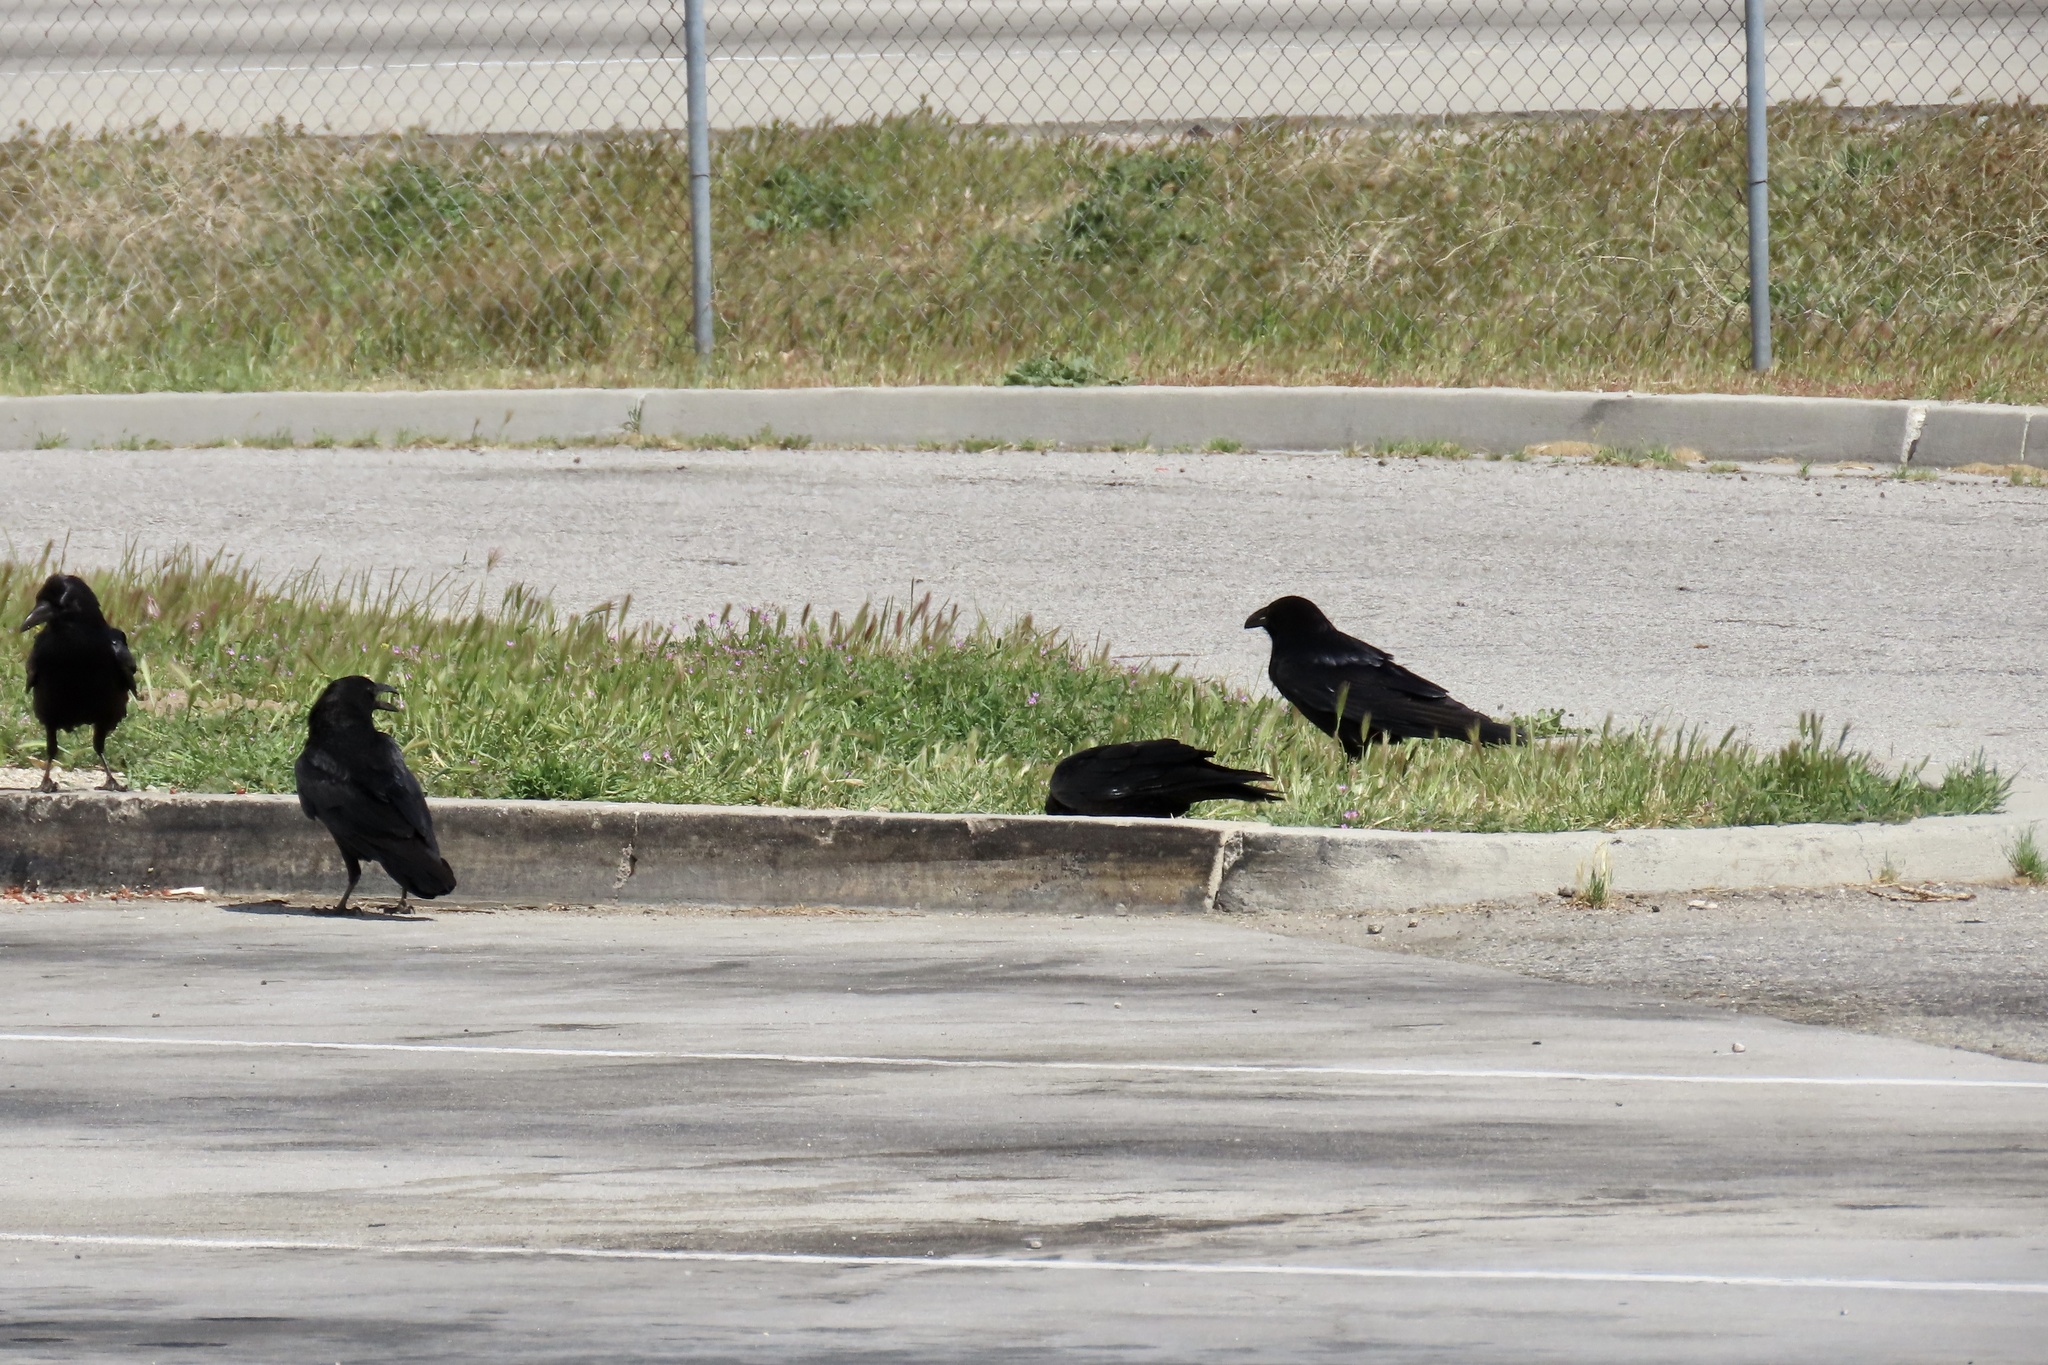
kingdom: Animalia
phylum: Chordata
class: Aves
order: Passeriformes
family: Corvidae
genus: Corvus
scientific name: Corvus corax
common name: Common raven
